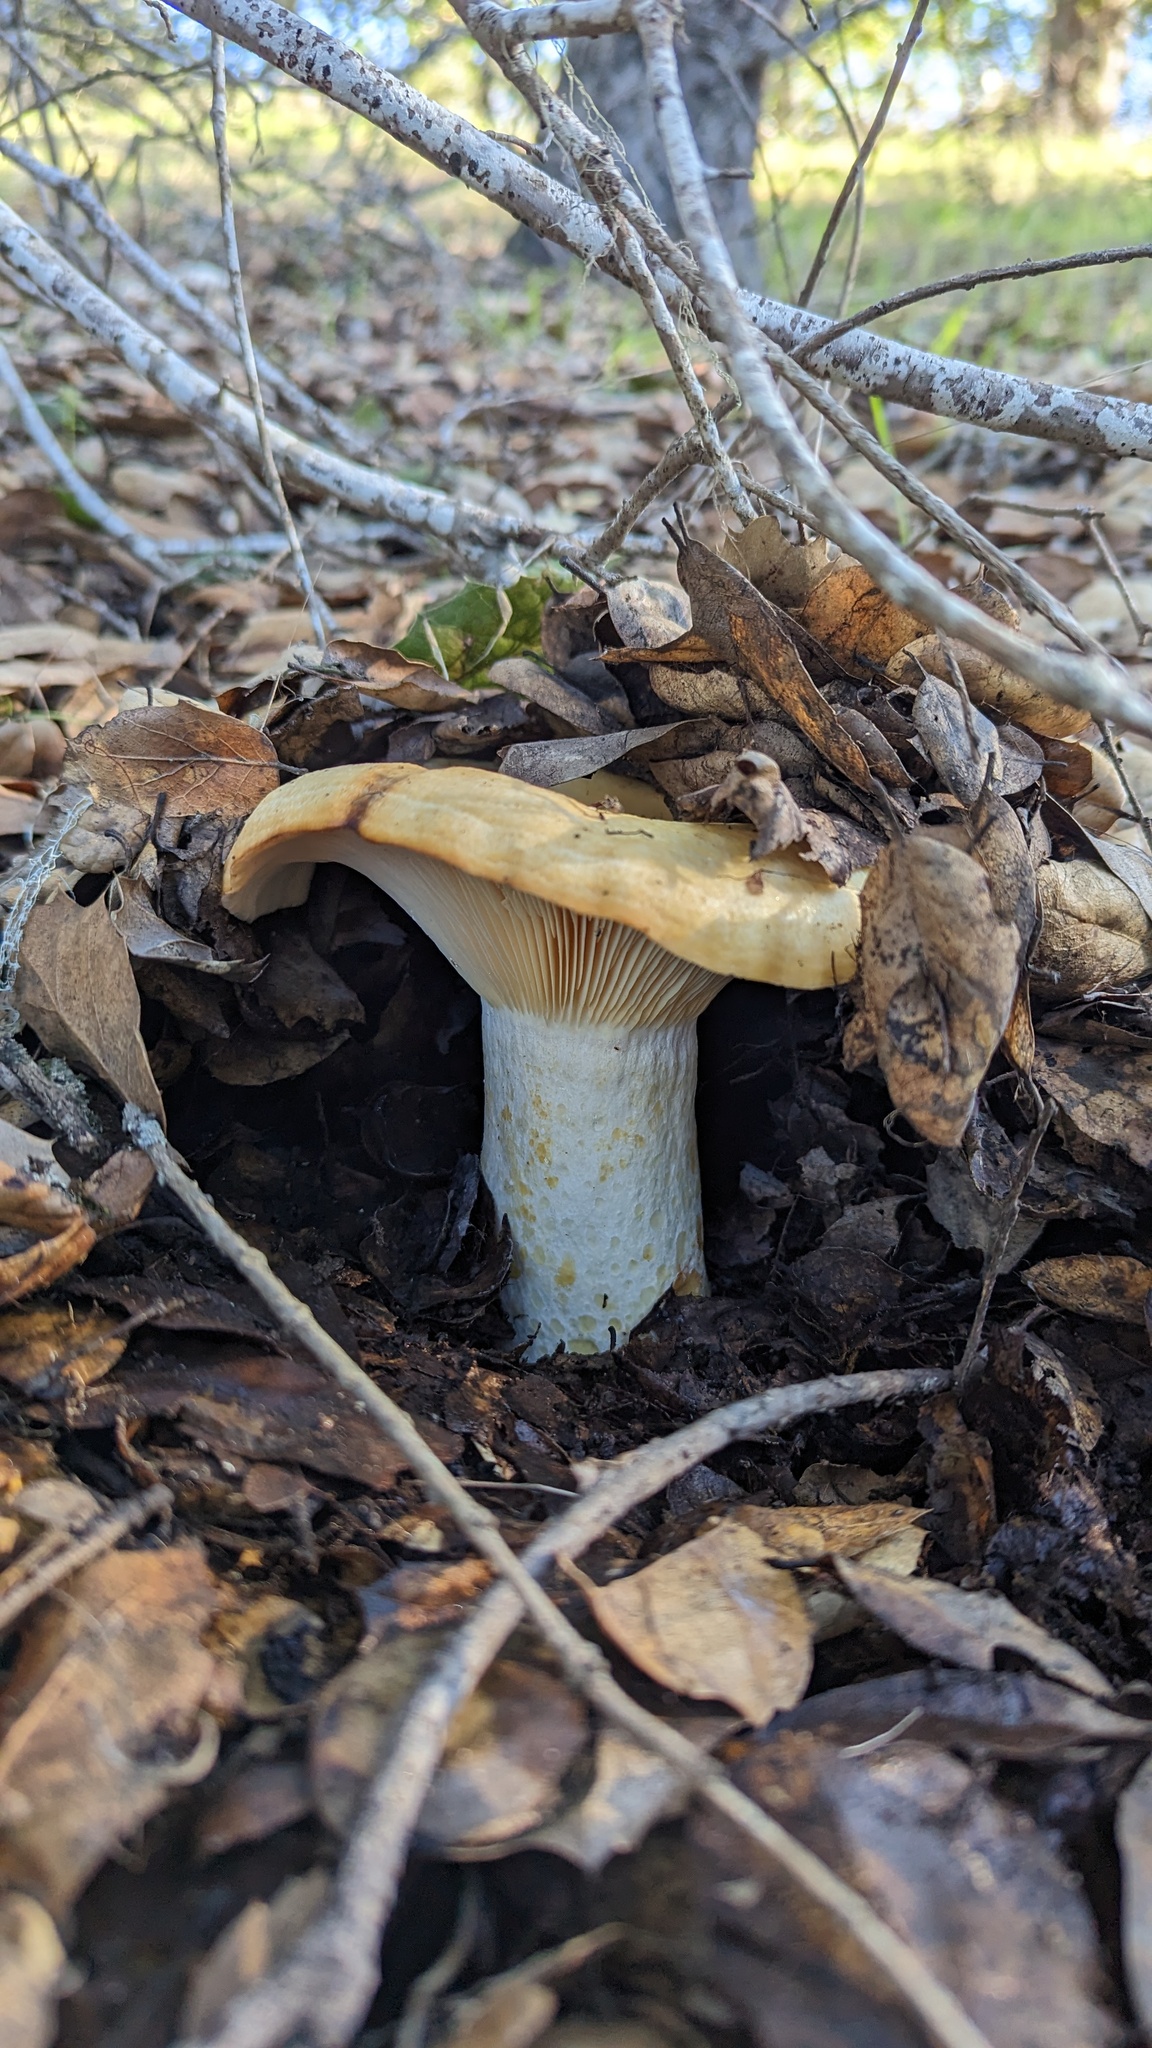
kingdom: Fungi
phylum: Basidiomycota
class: Agaricomycetes
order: Russulales
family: Russulaceae
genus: Lactarius
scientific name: Lactarius alnicola
